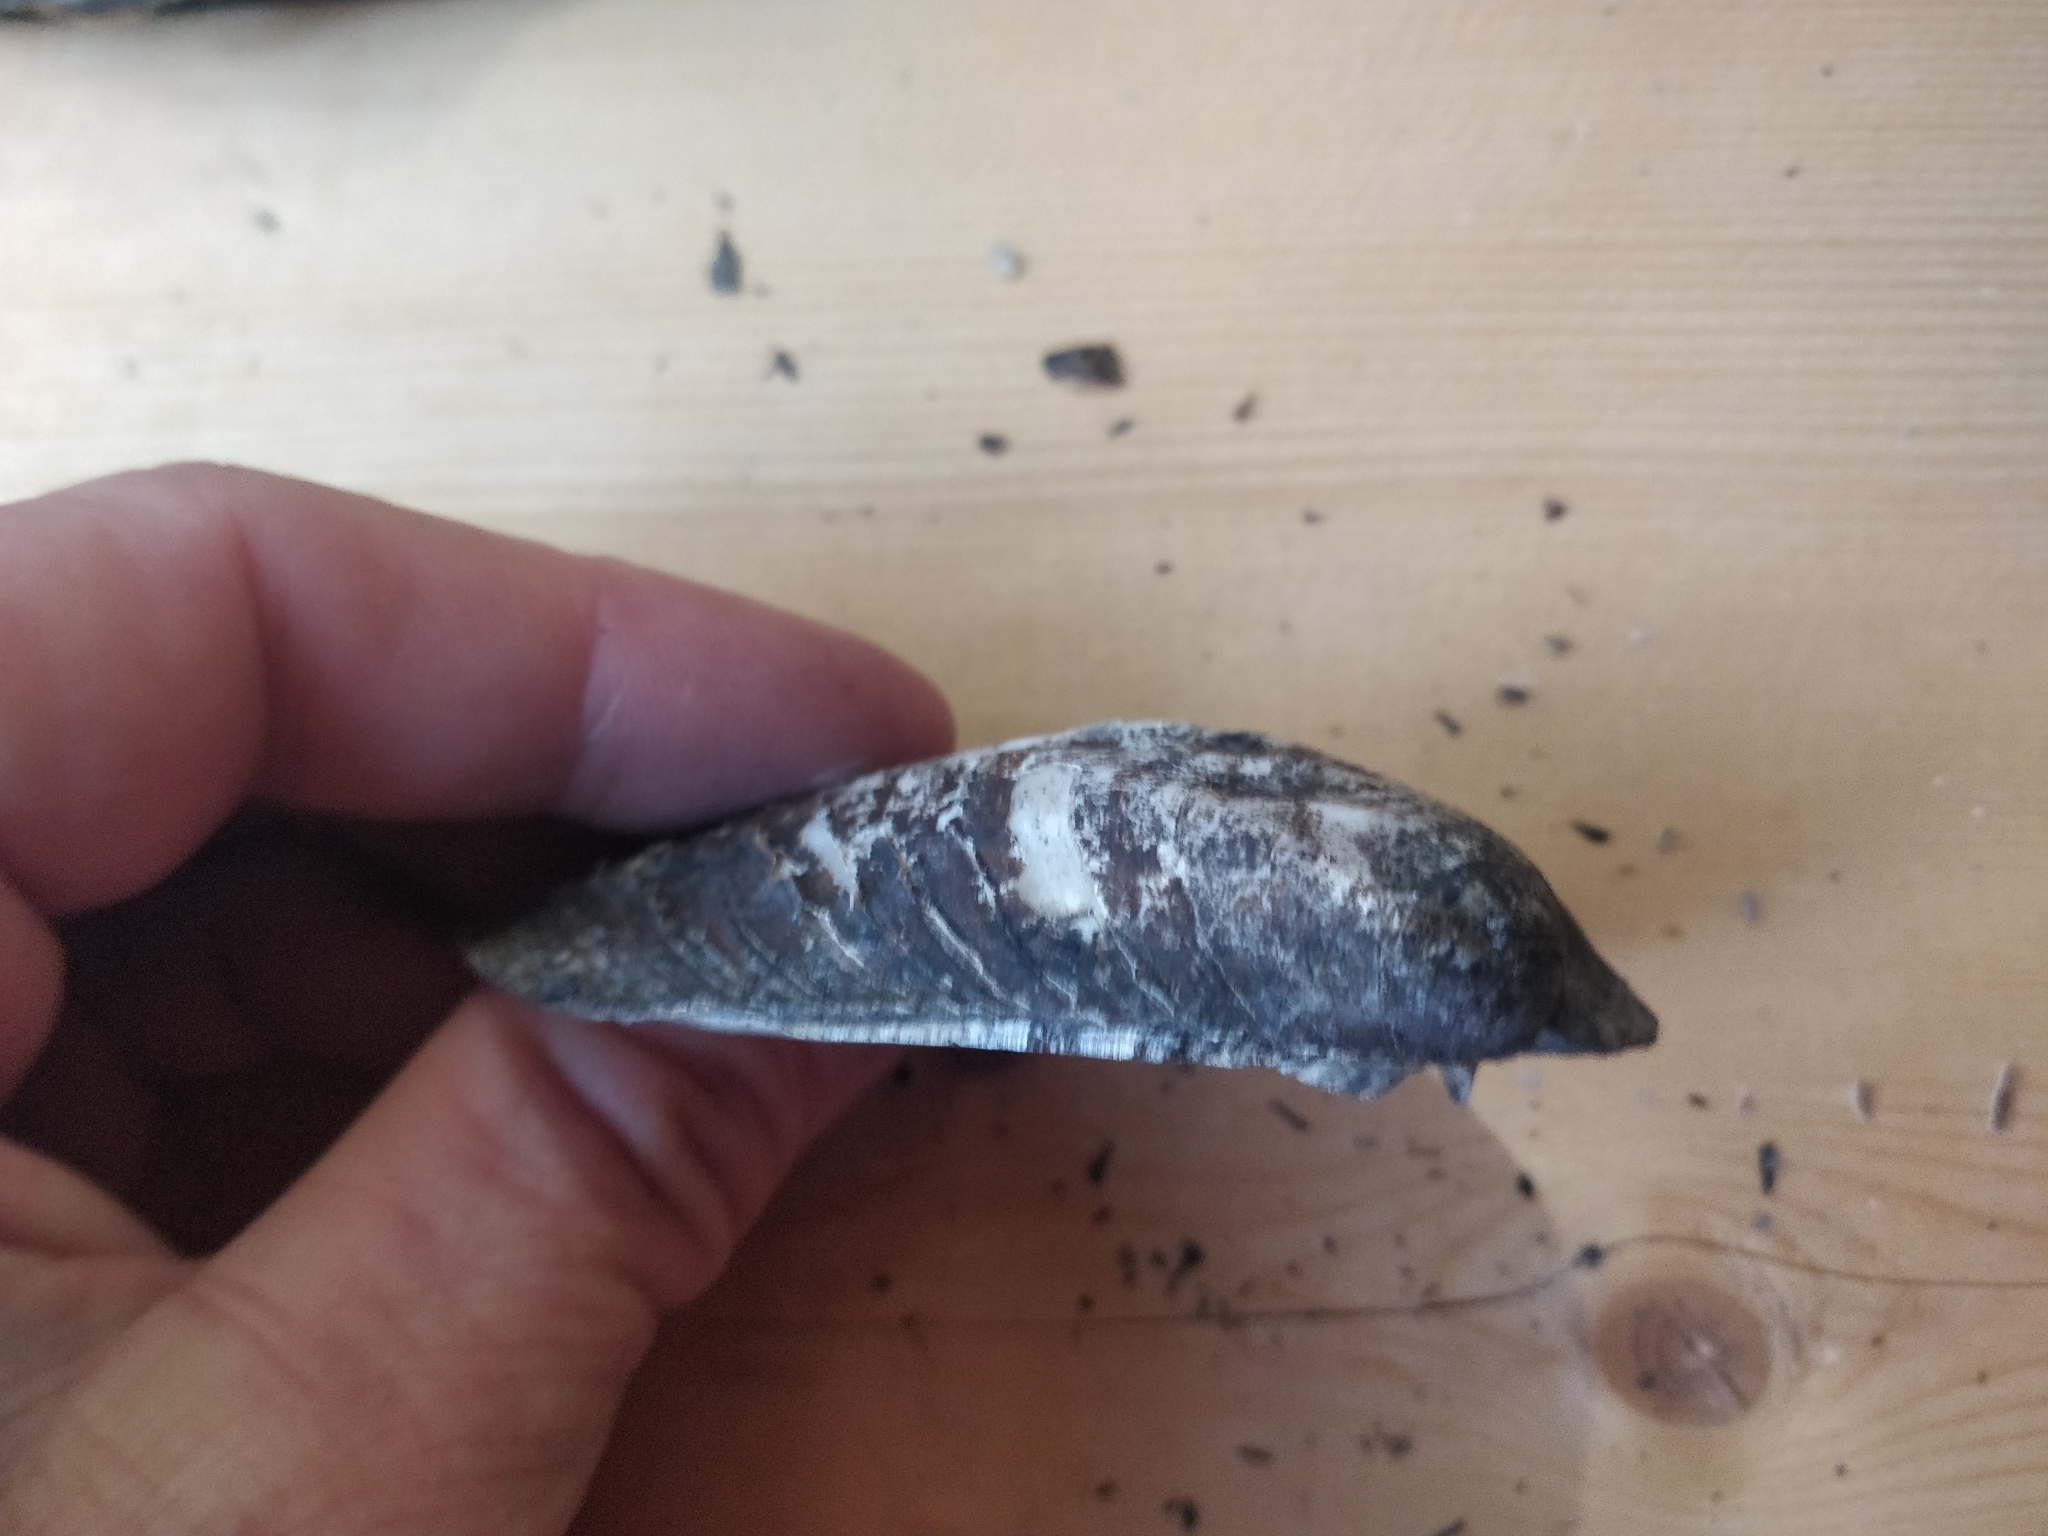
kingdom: Animalia
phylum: Mollusca
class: Bivalvia
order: Unionida
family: Unionidae
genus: Amblema
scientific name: Amblema plicata
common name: Threeridge
